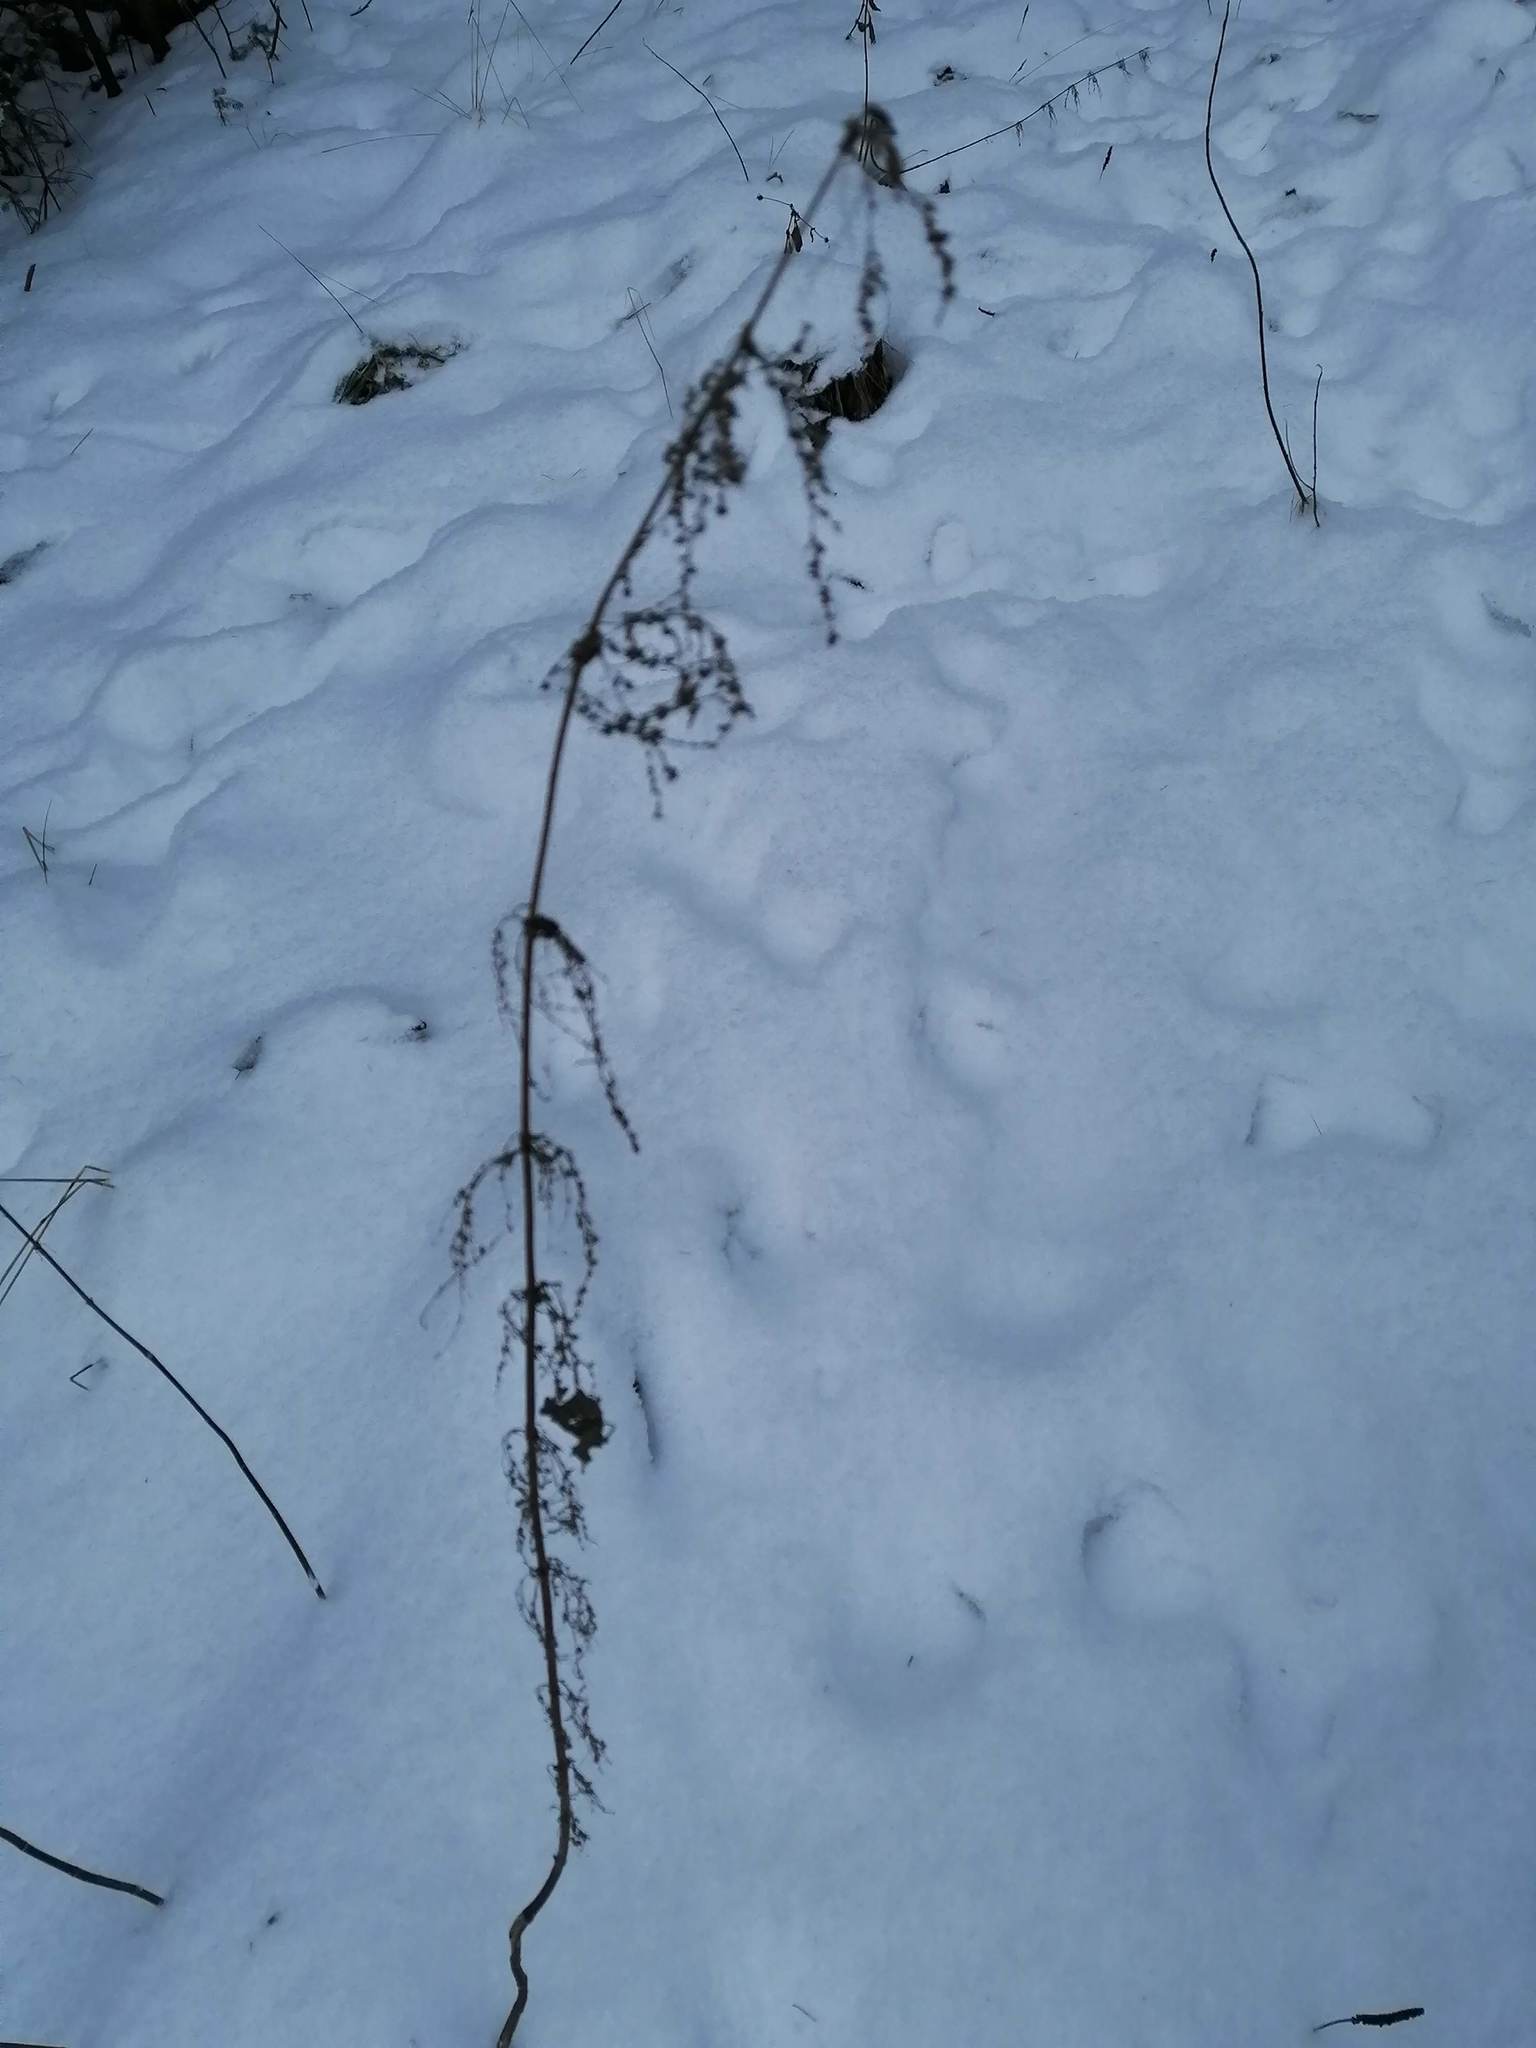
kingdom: Plantae
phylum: Tracheophyta
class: Magnoliopsida
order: Rosales
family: Urticaceae
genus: Urtica
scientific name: Urtica dioica
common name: Common nettle
